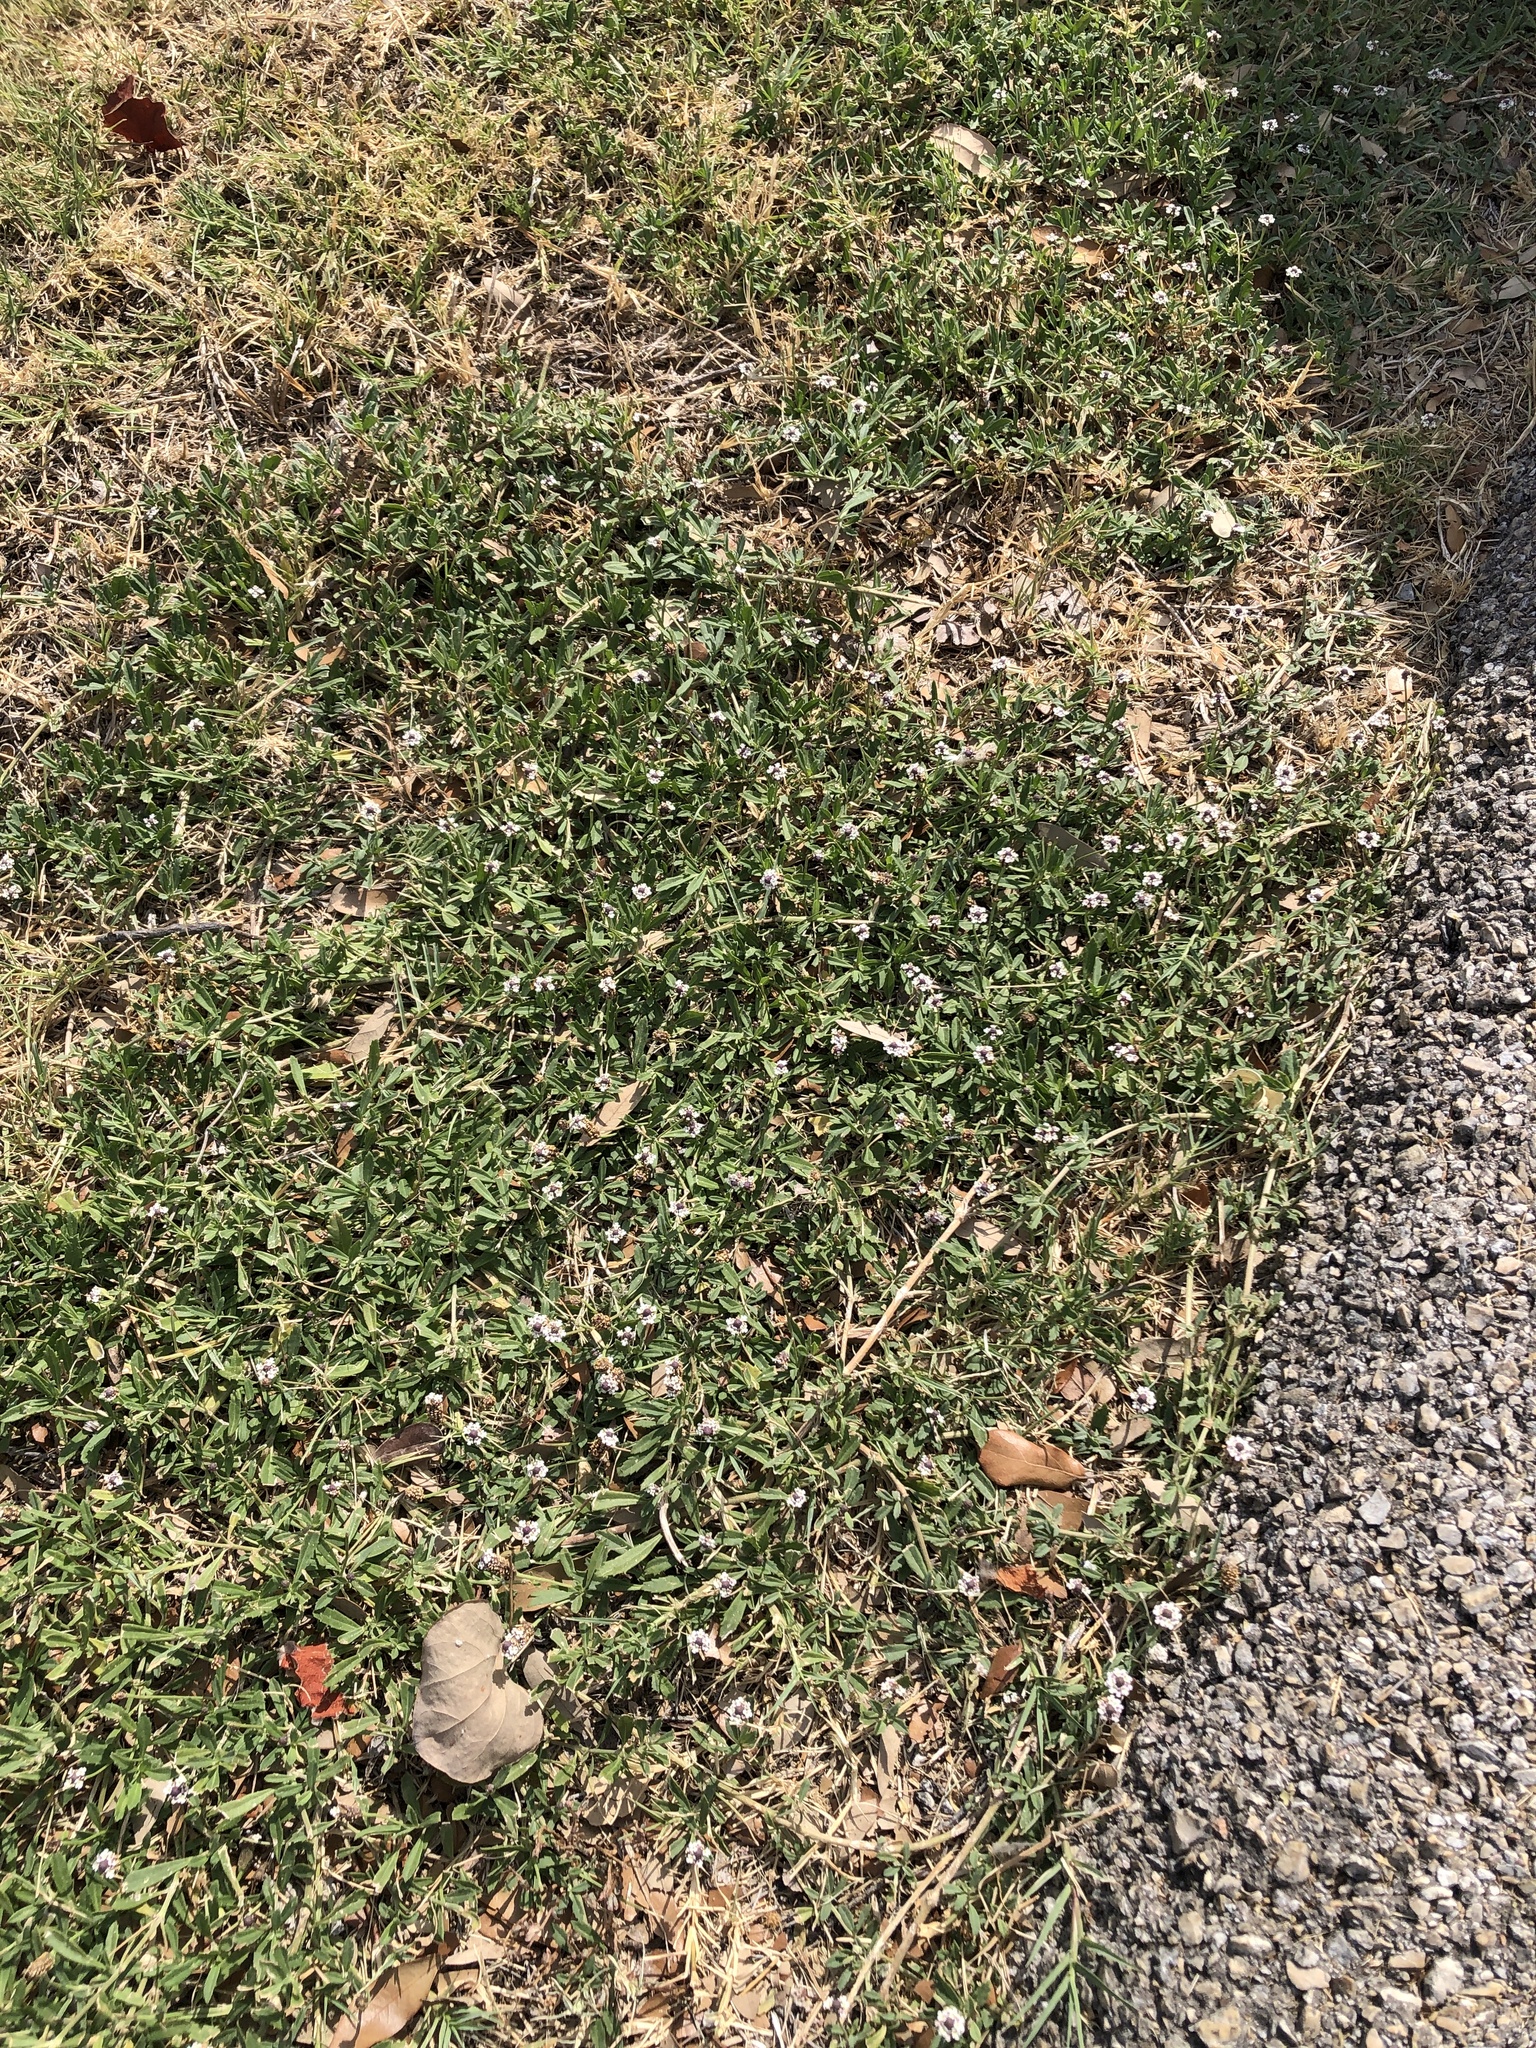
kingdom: Plantae
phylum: Tracheophyta
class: Magnoliopsida
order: Lamiales
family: Verbenaceae
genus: Phyla
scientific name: Phyla nodiflora
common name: Frogfruit
